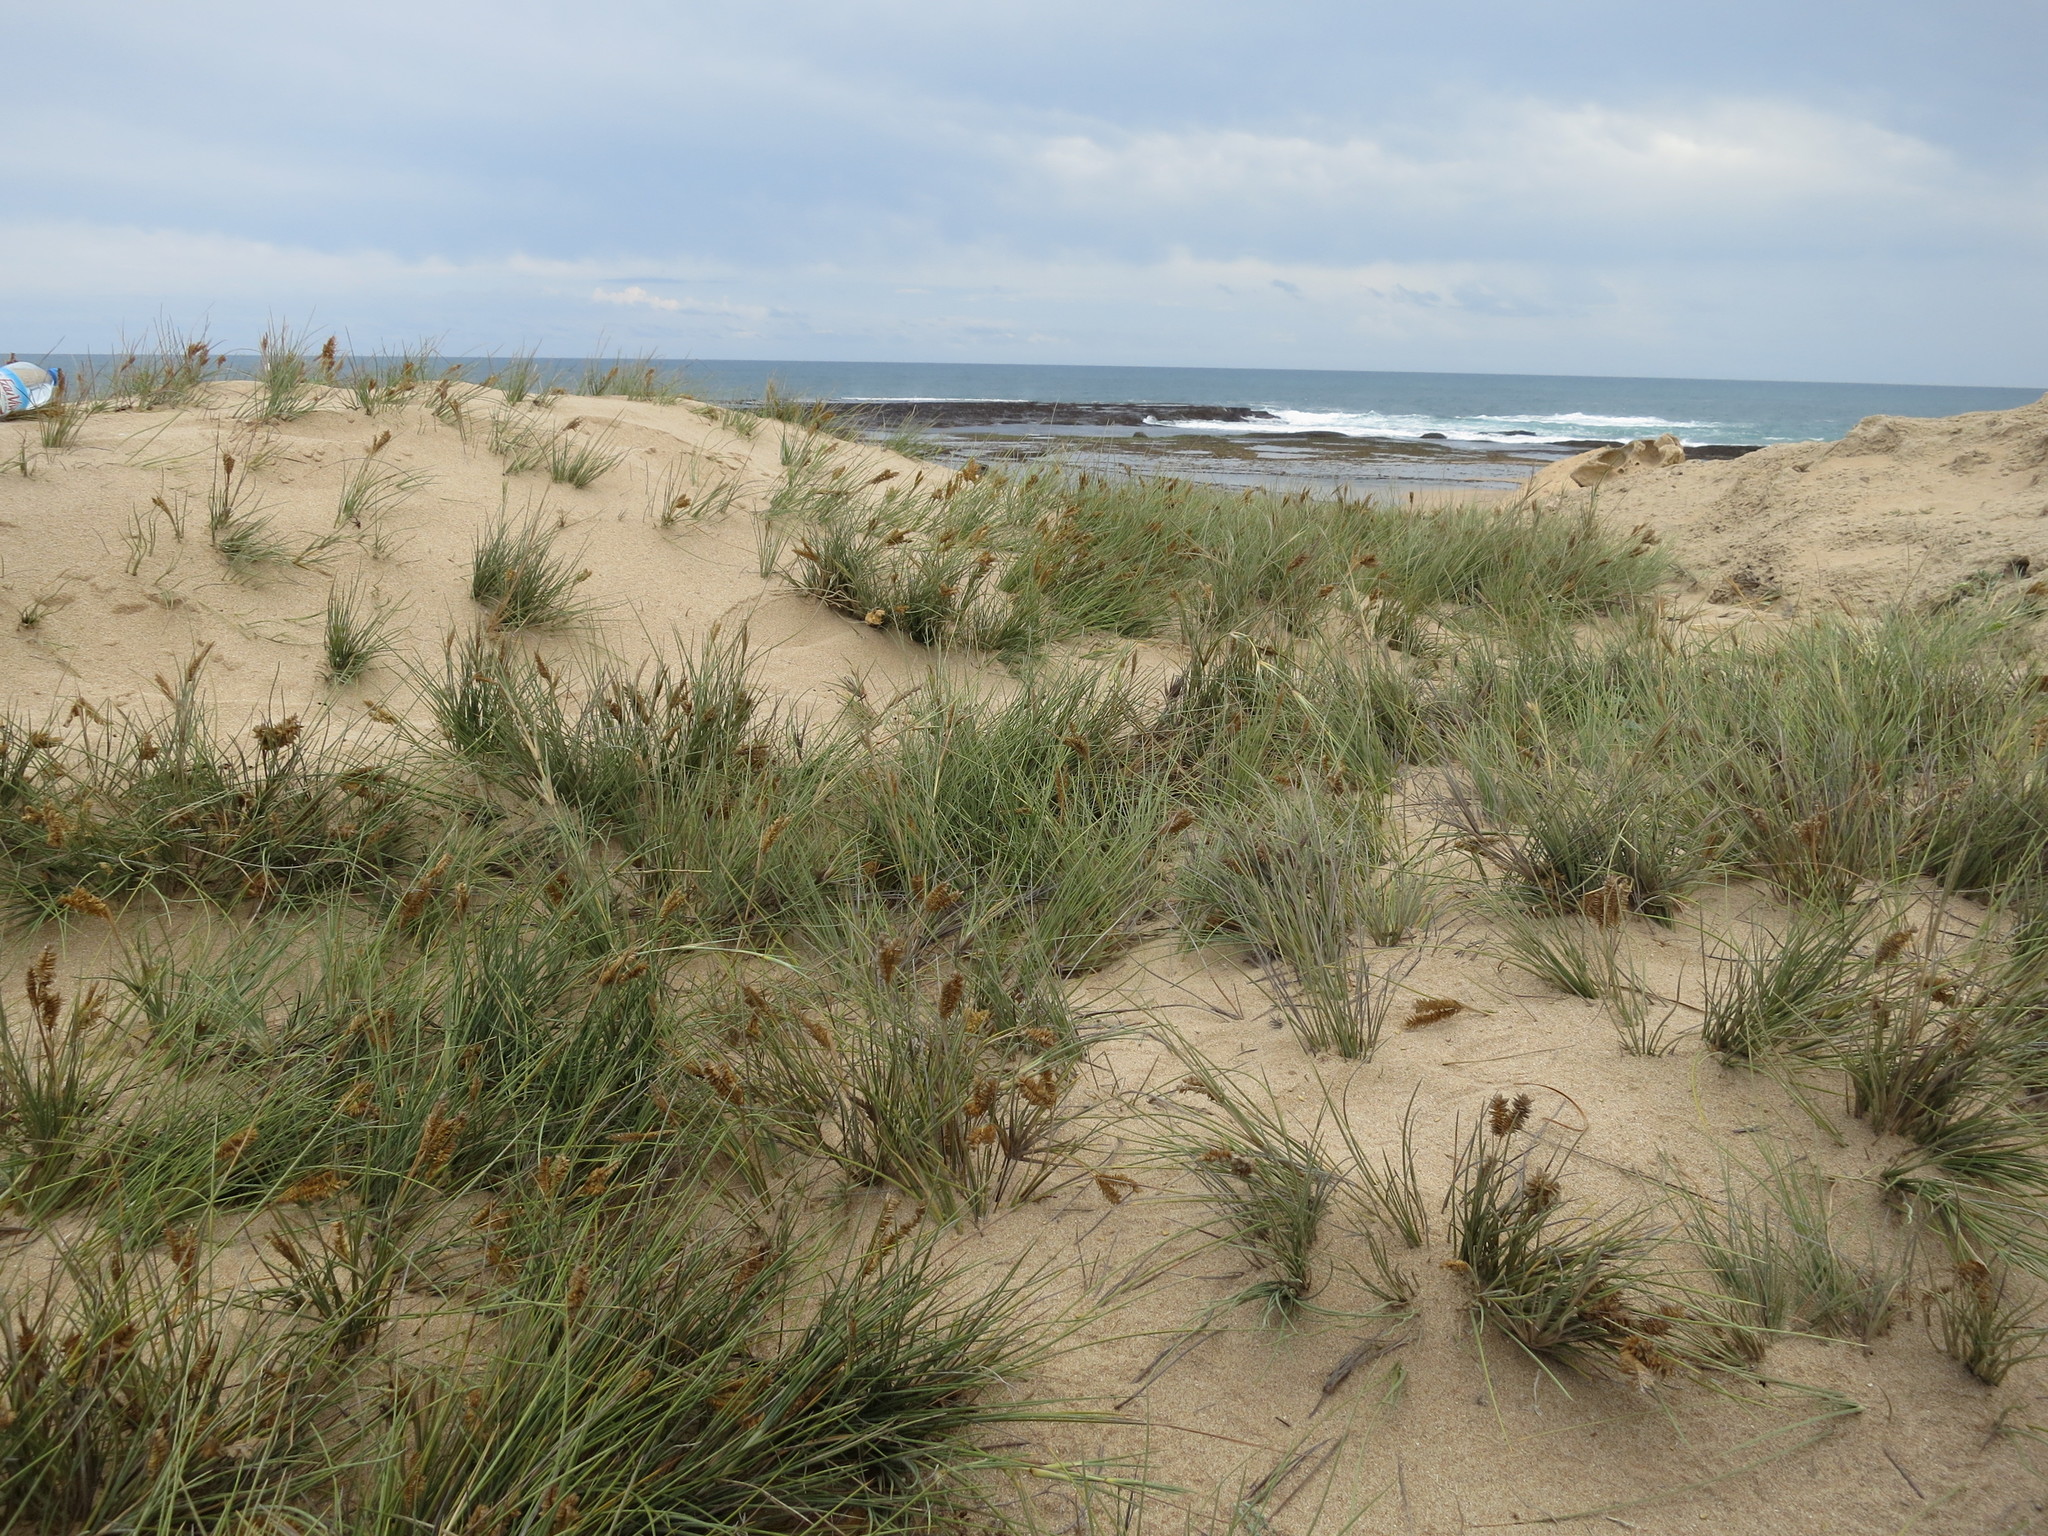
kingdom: Plantae
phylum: Tracheophyta
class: Liliopsida
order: Poales
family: Poaceae
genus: Sclerodactylon
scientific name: Sclerodactylon macrostachyum
